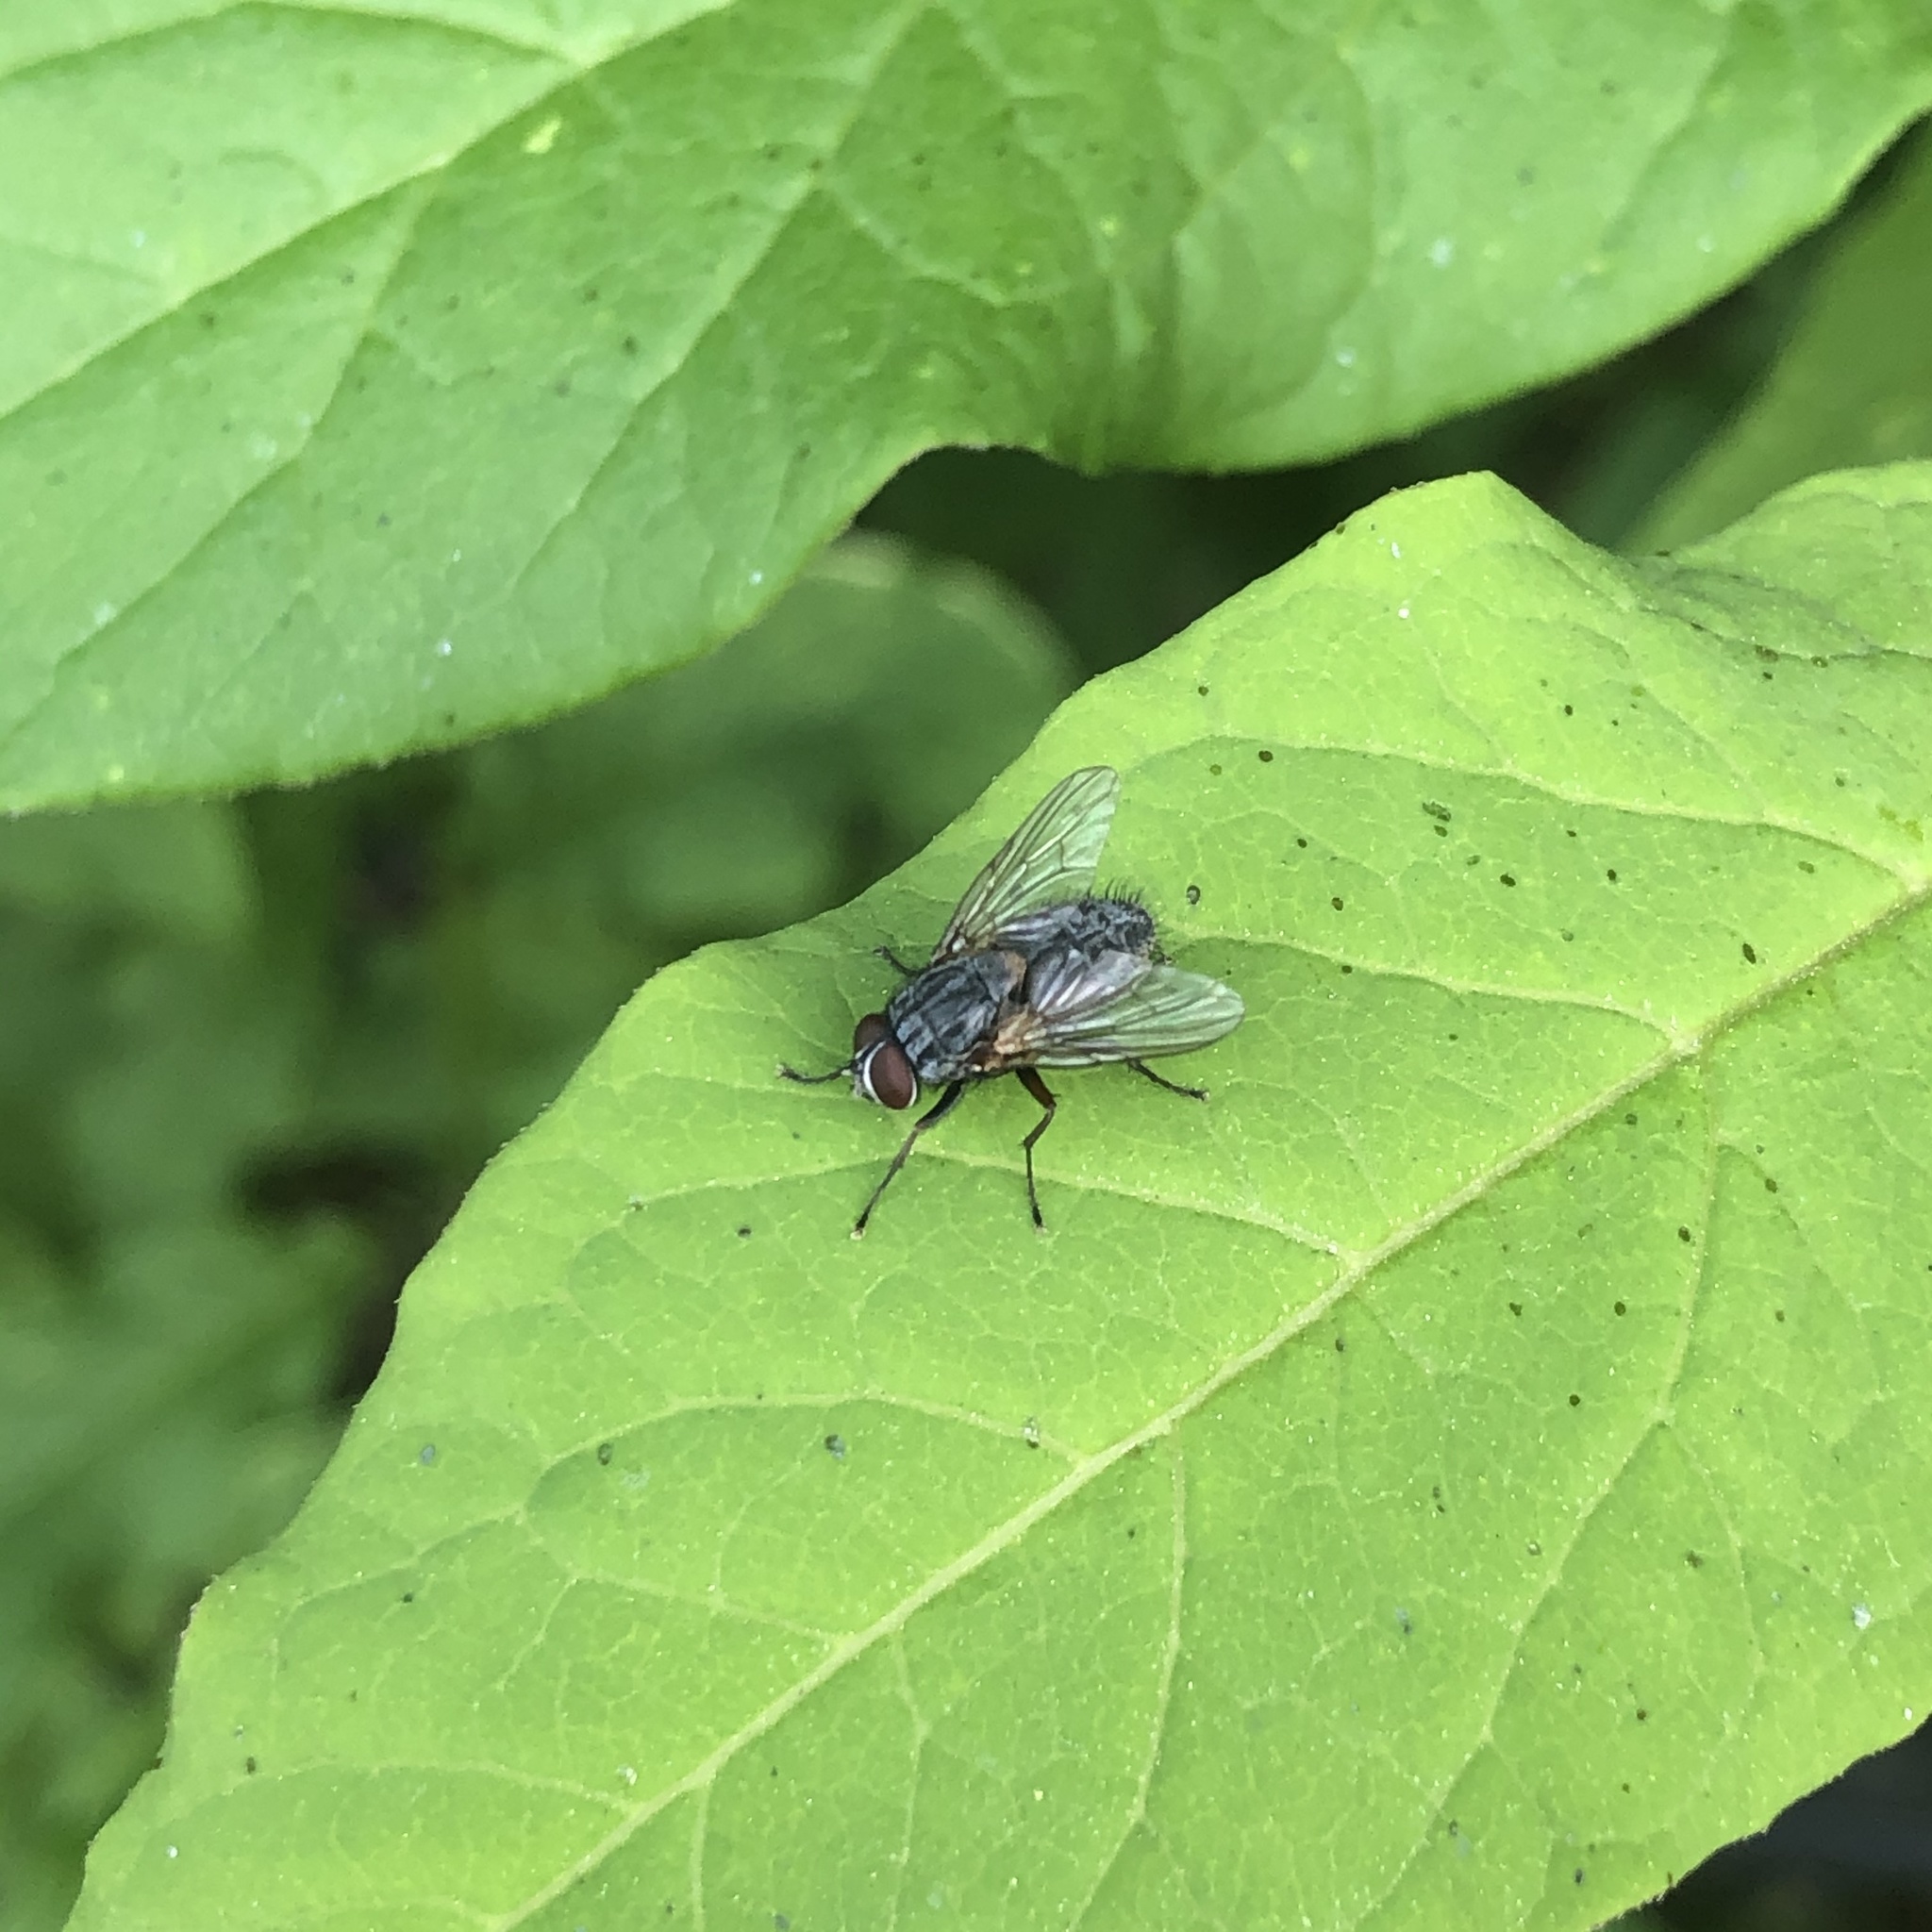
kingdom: Animalia
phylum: Arthropoda
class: Insecta
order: Diptera
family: Muscidae
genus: Muscina
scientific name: Muscina stabulans
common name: False stable fly
